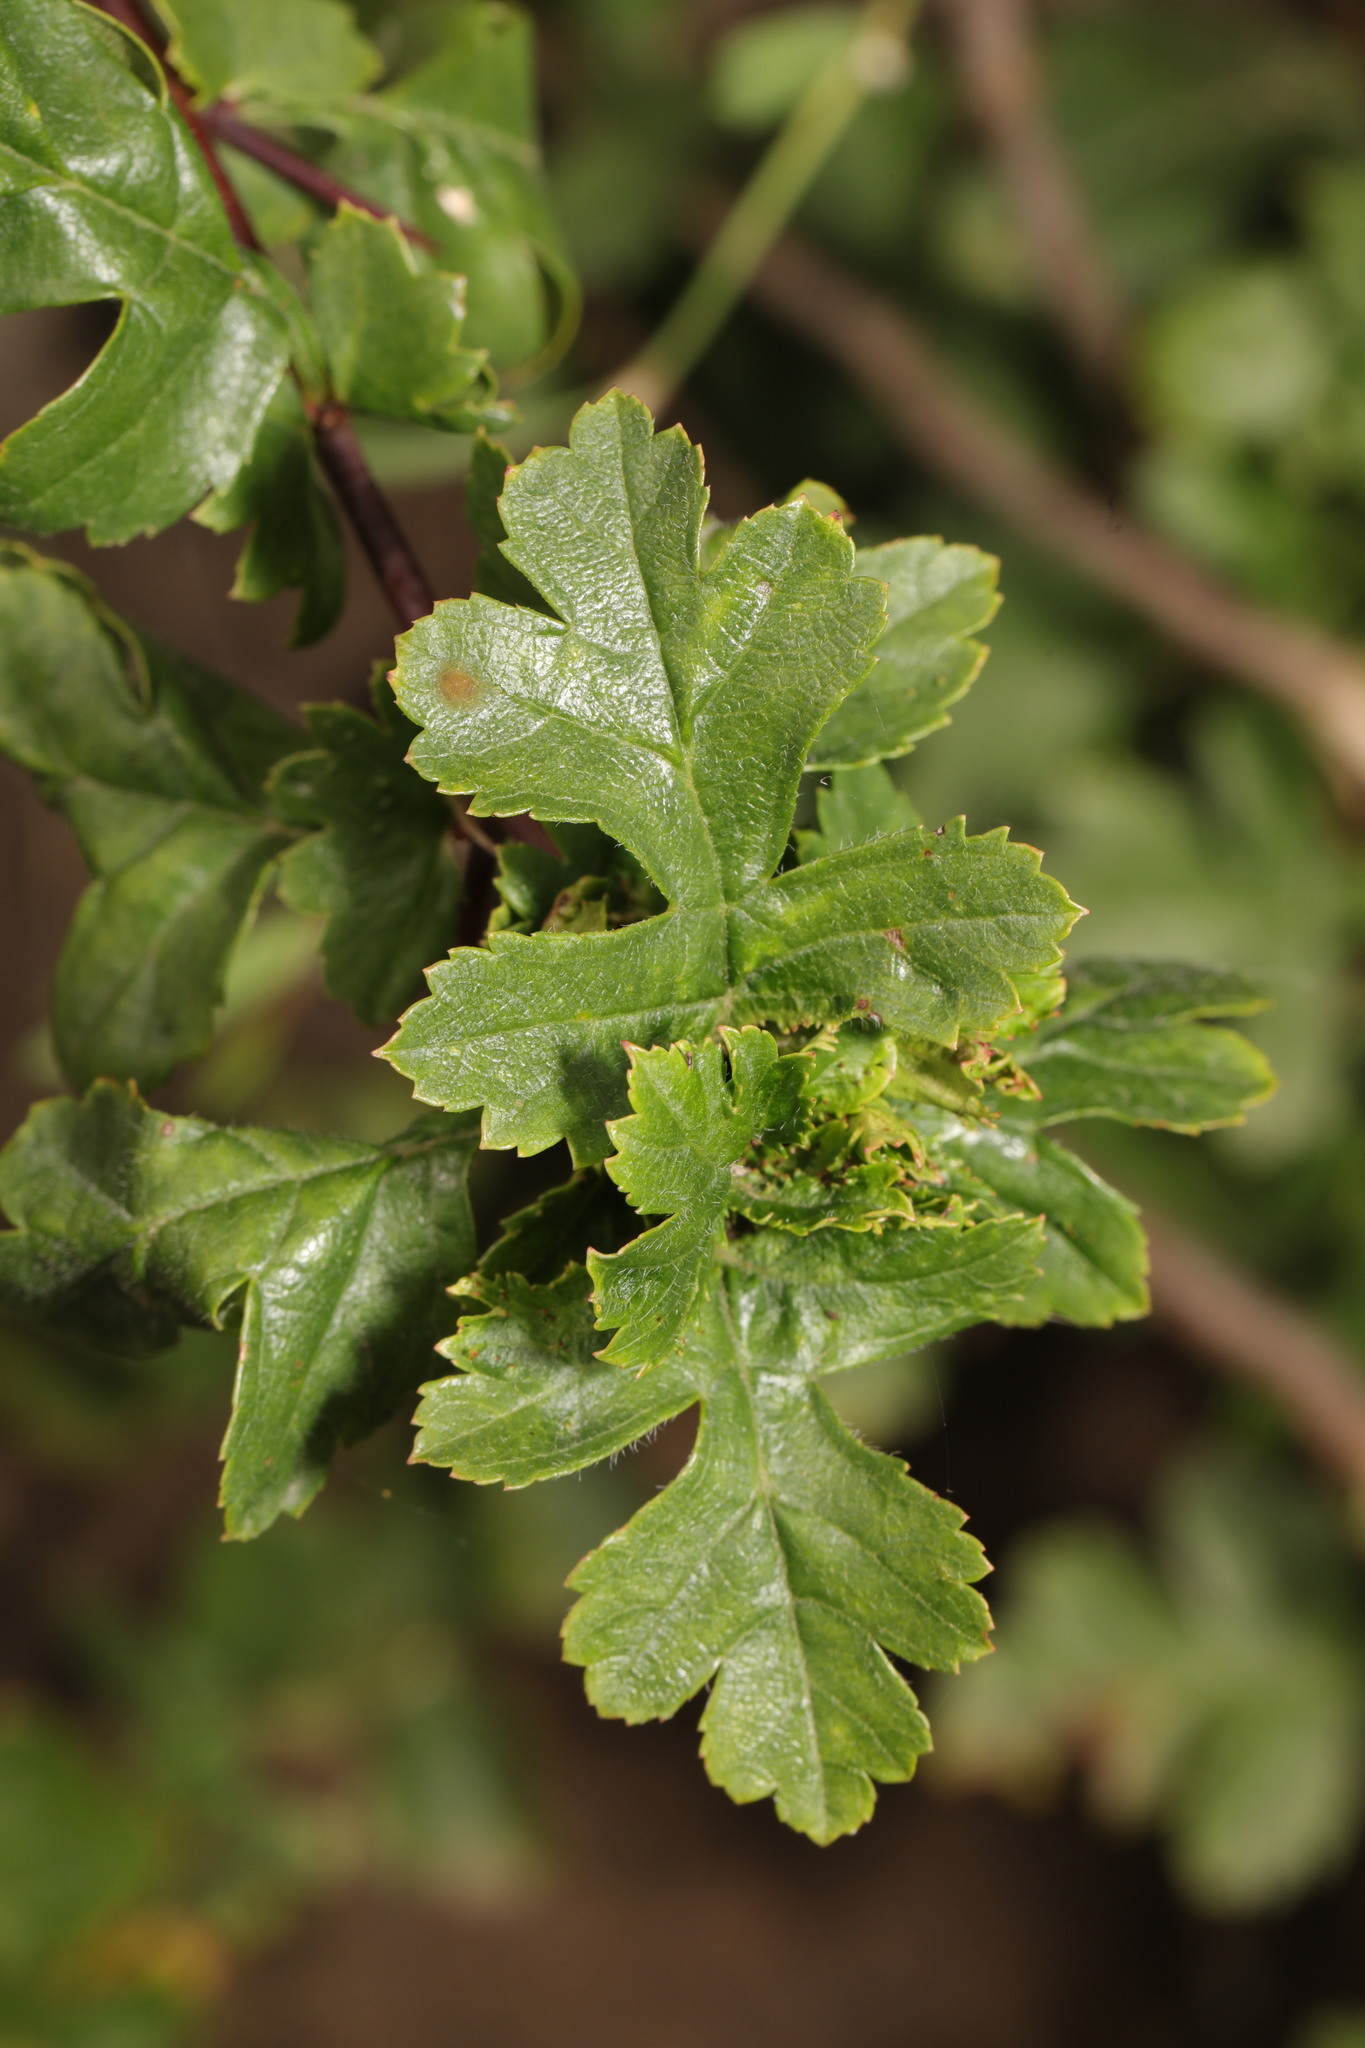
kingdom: Plantae
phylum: Tracheophyta
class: Magnoliopsida
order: Rosales
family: Rosaceae
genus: Crataegus
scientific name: Crataegus monogyna
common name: Hawthorn
